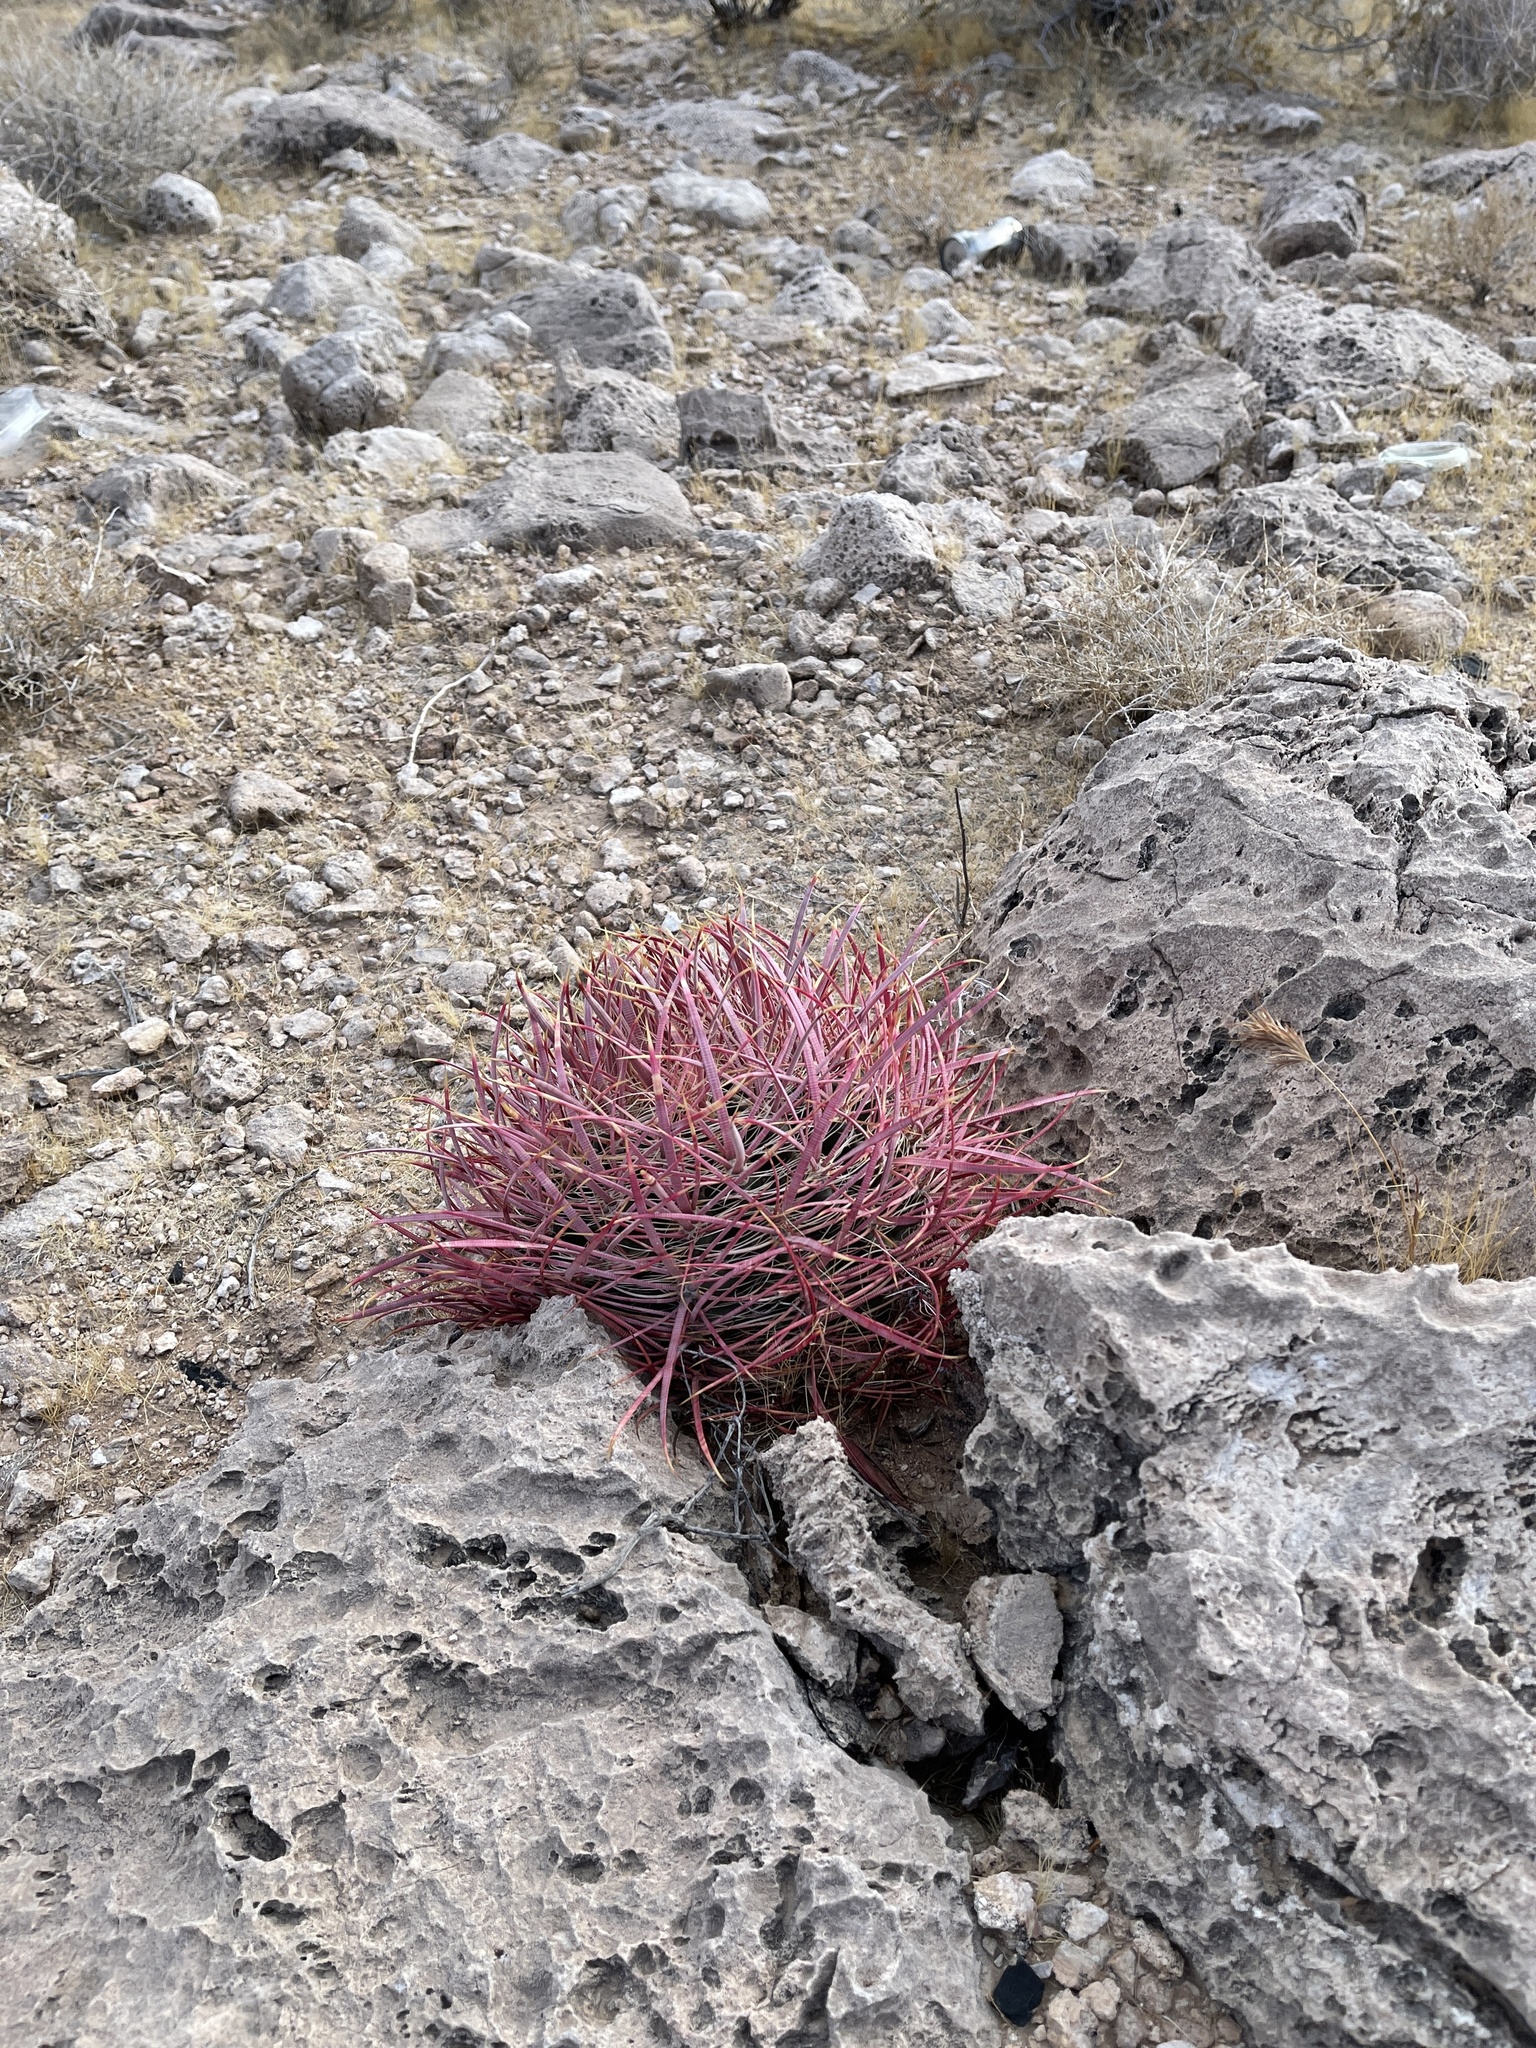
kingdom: Plantae
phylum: Tracheophyta
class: Magnoliopsida
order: Caryophyllales
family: Cactaceae
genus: Ferocactus
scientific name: Ferocactus cylindraceus
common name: California barrel cactus
